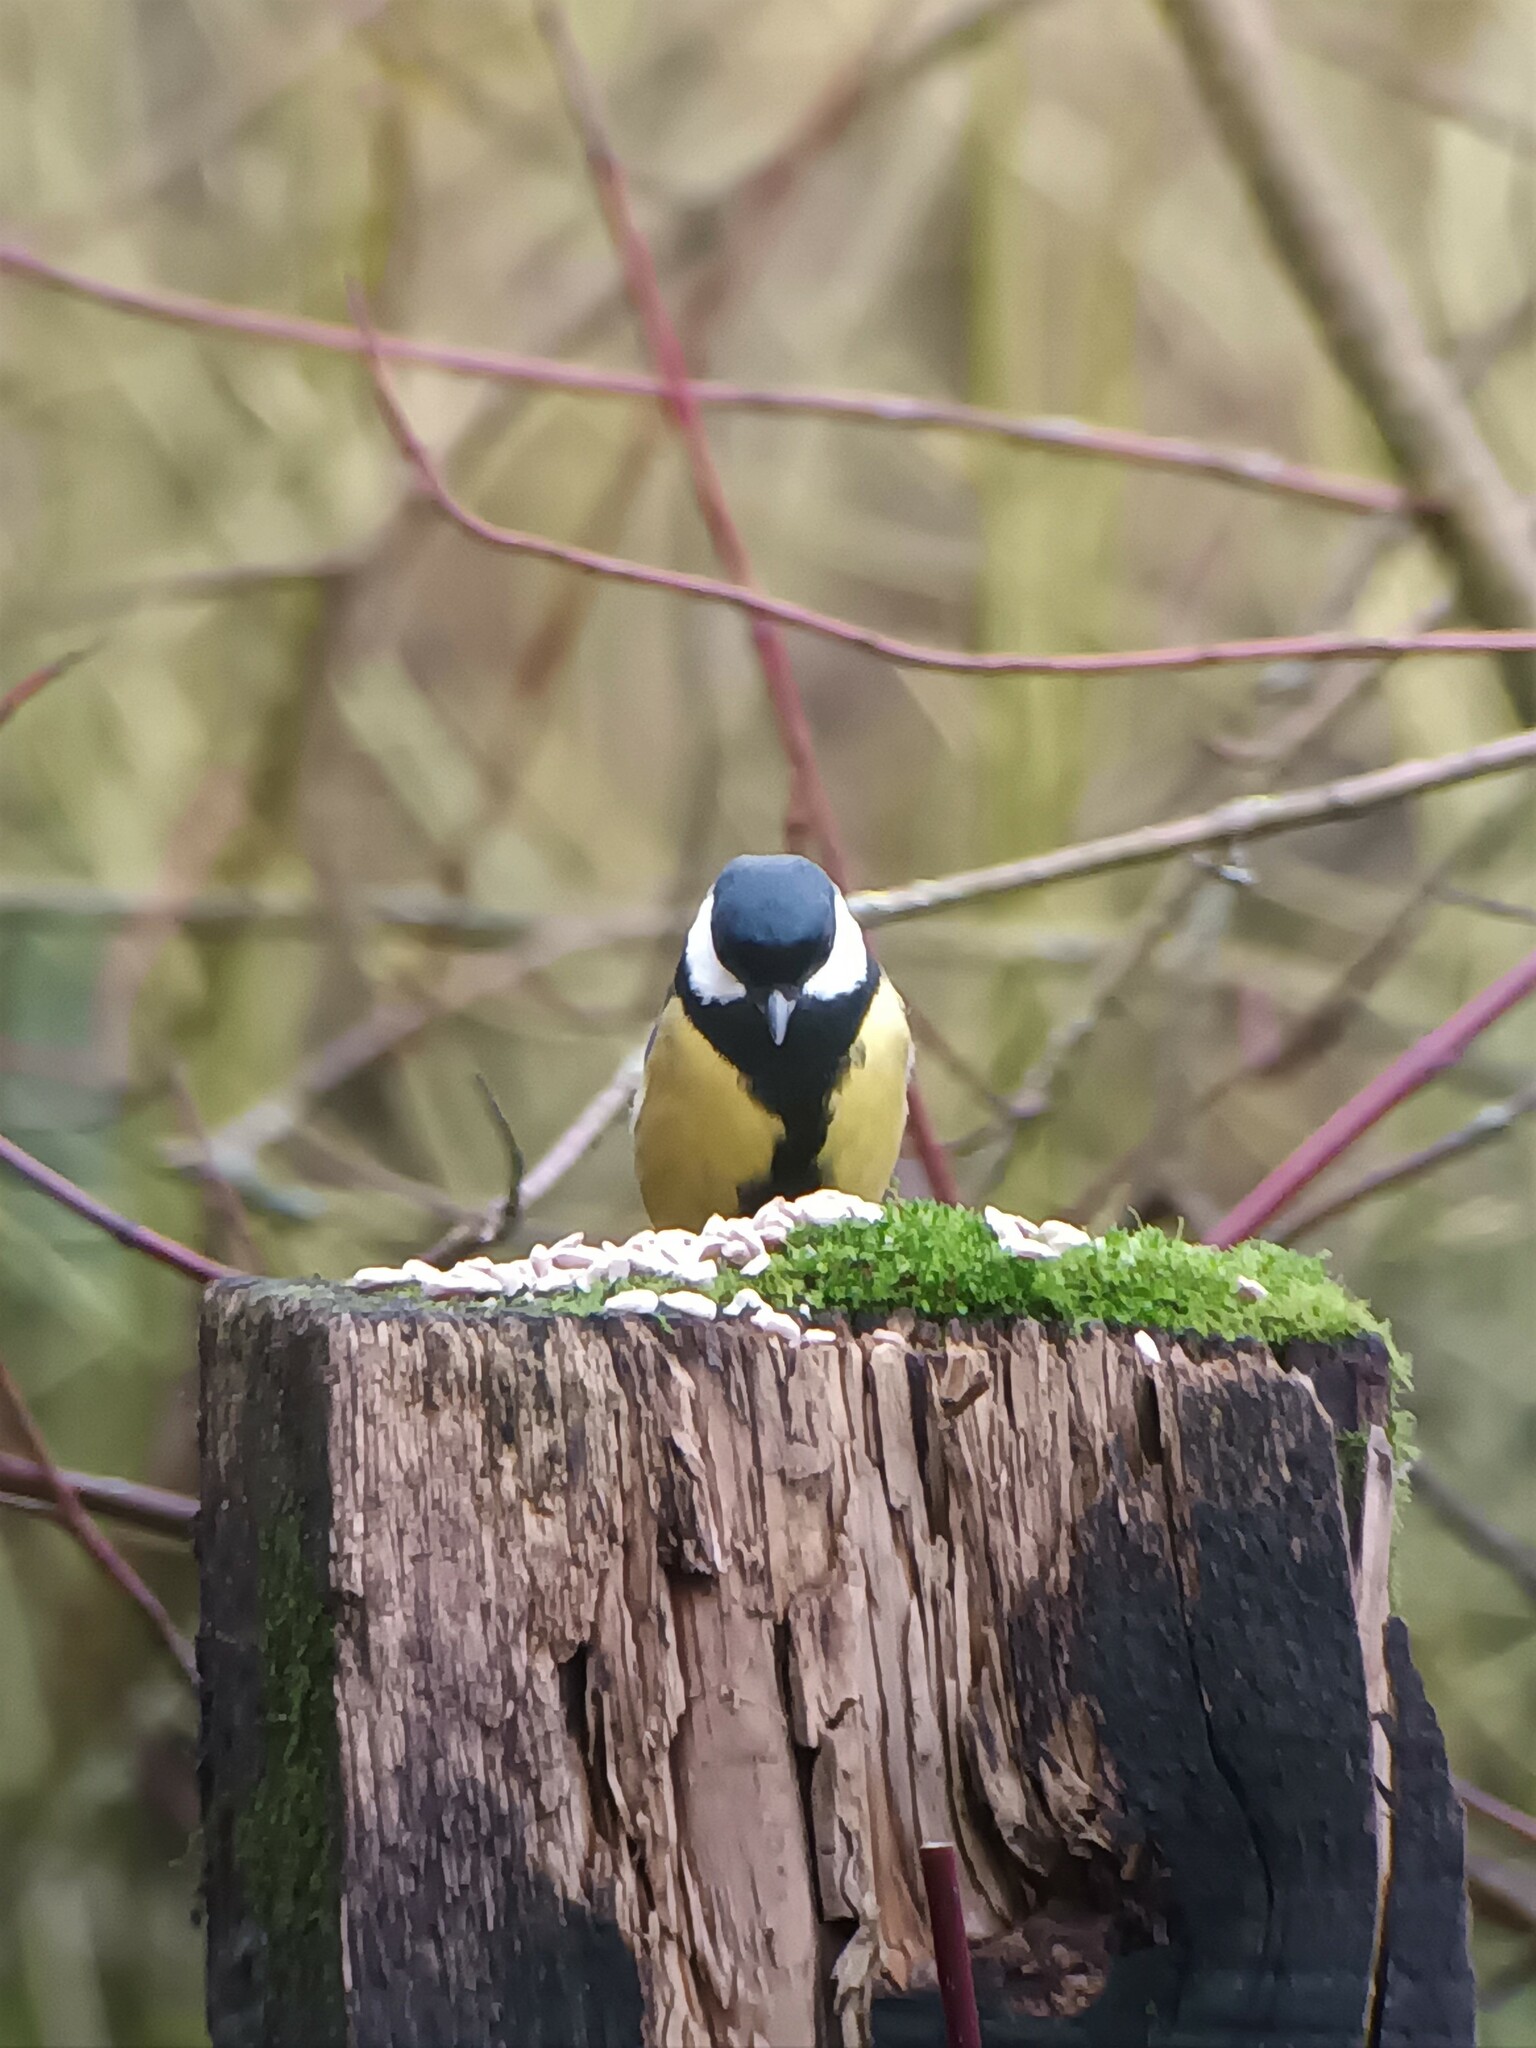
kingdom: Animalia
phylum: Chordata
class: Aves
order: Passeriformes
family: Paridae
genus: Parus
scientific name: Parus major
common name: Great tit
